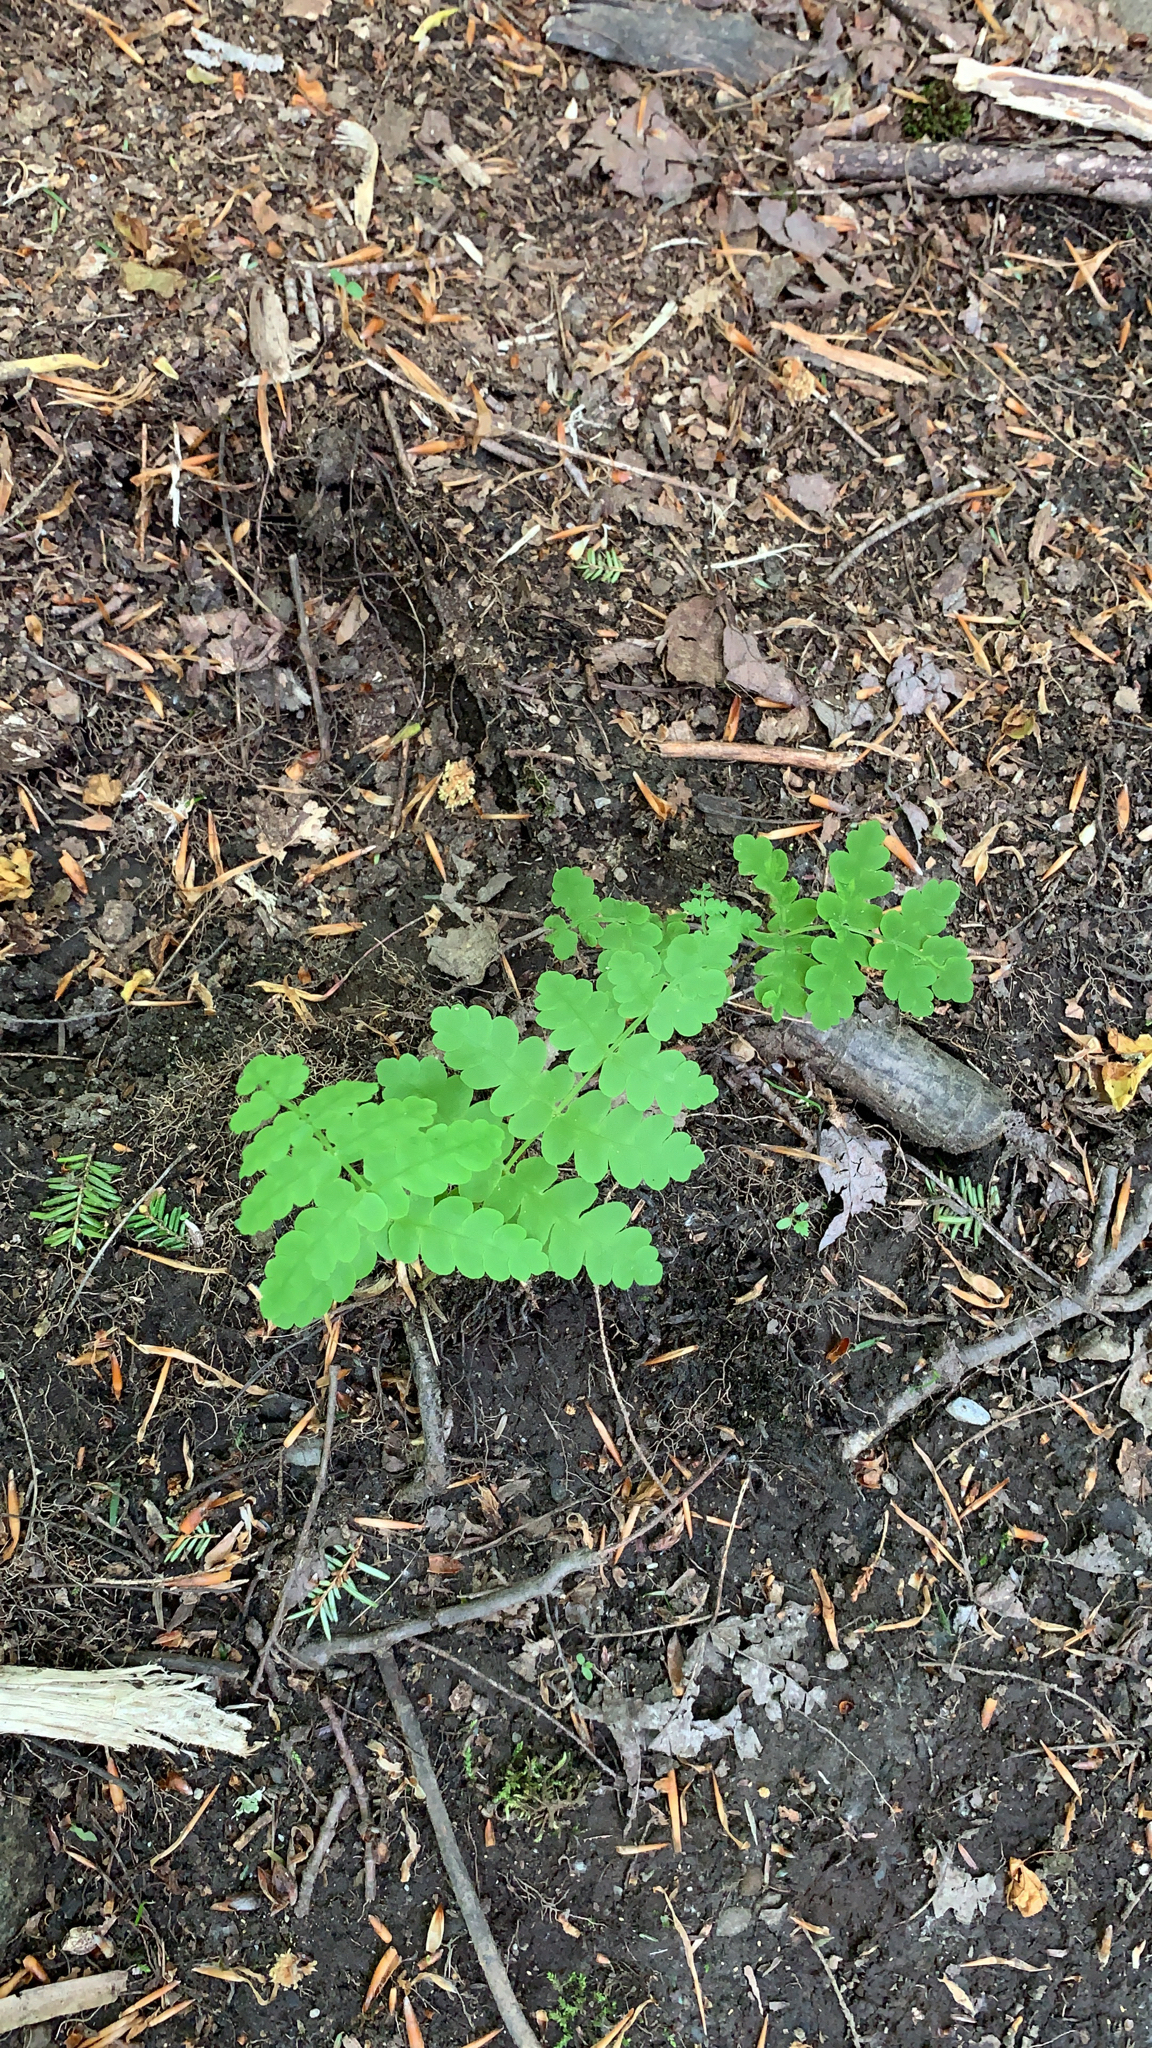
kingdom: Plantae
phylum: Tracheophyta
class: Polypodiopsida
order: Osmundales
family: Osmundaceae
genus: Claytosmunda
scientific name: Claytosmunda claytoniana
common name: Clayton's fern
